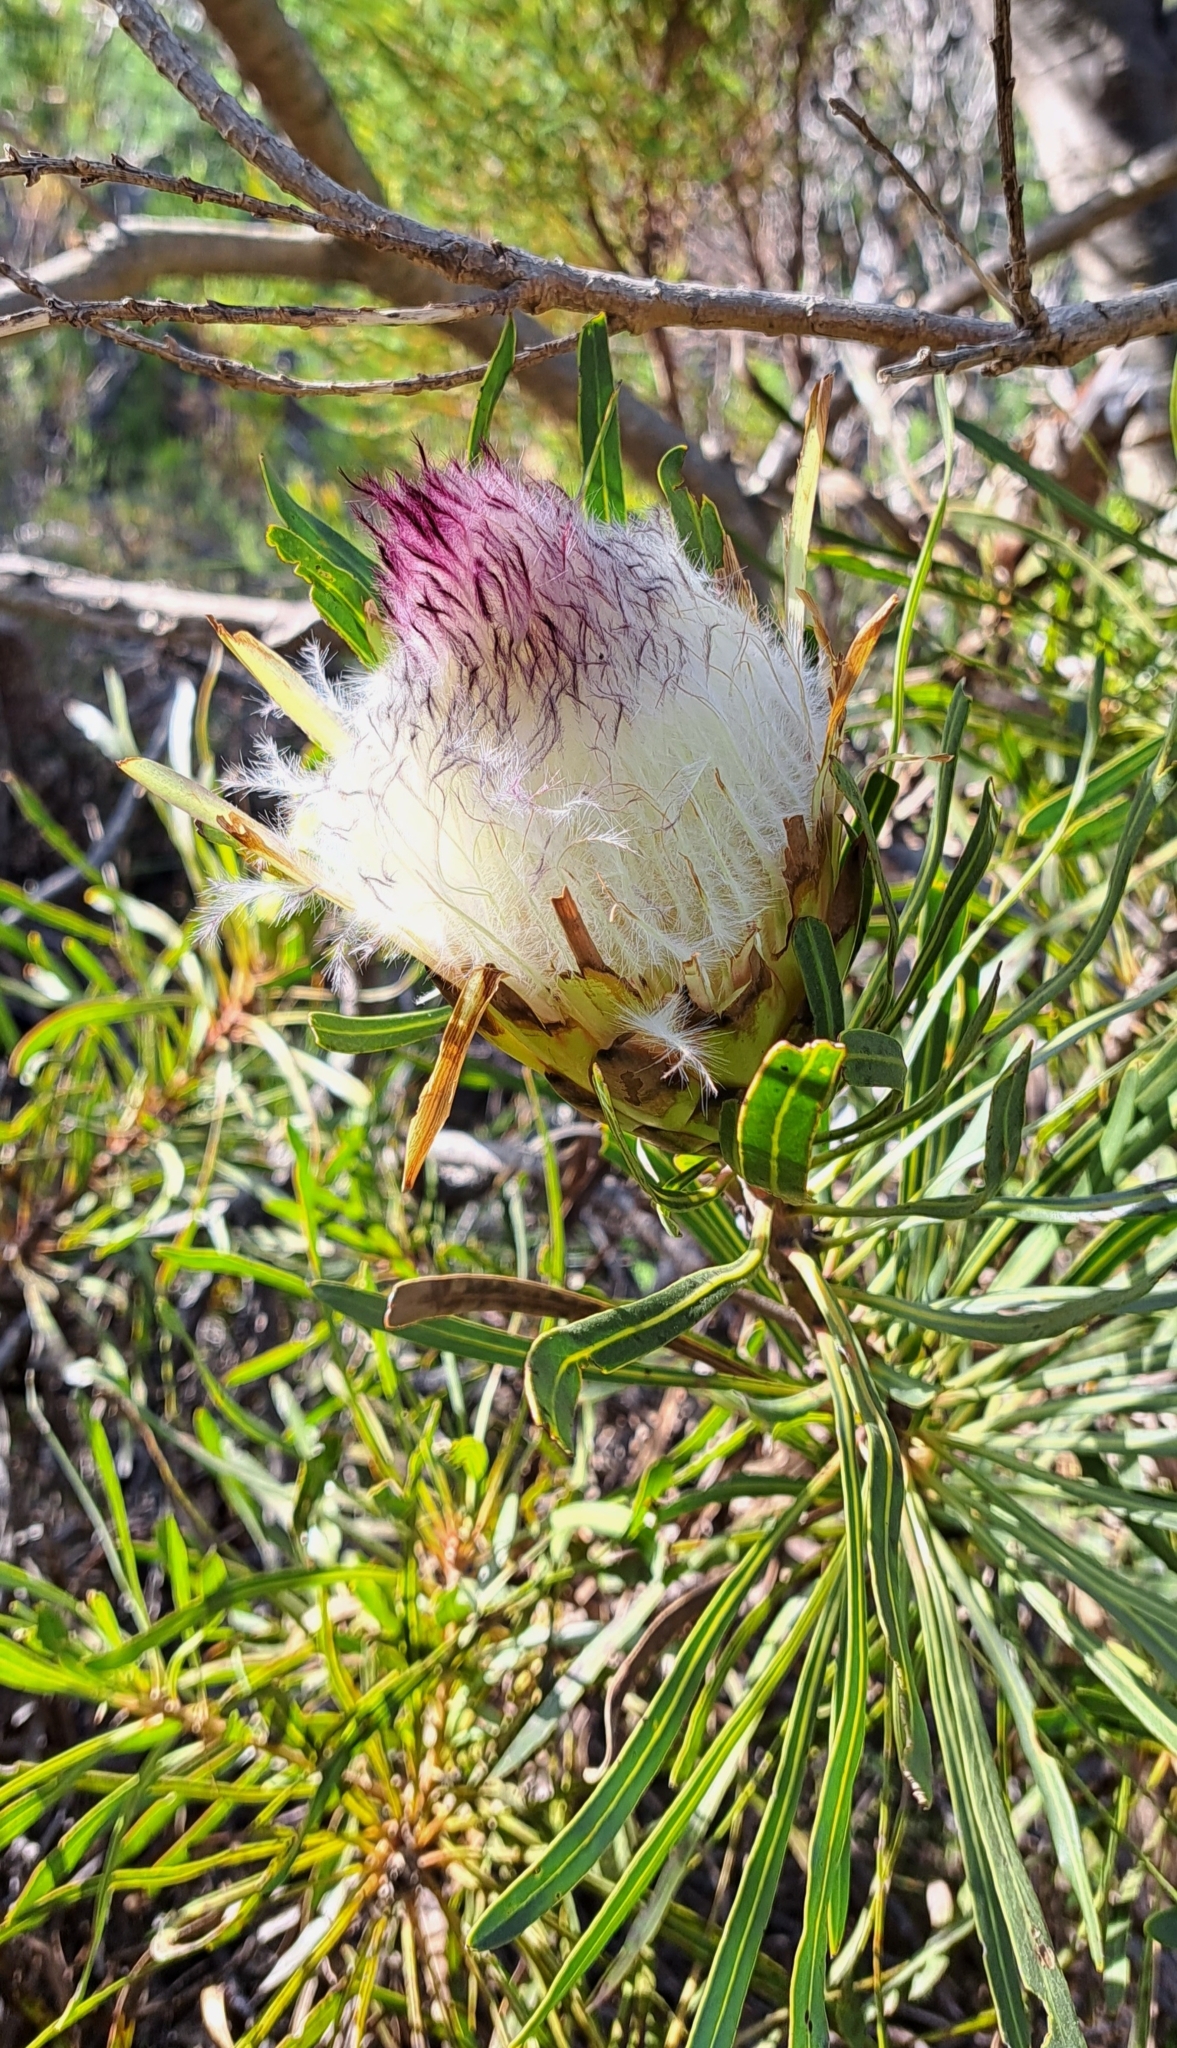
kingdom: Plantae
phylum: Tracheophyta
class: Magnoliopsida
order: Proteales
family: Proteaceae
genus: Protea
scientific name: Protea longifolia
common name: Long-leaf sugarbush
